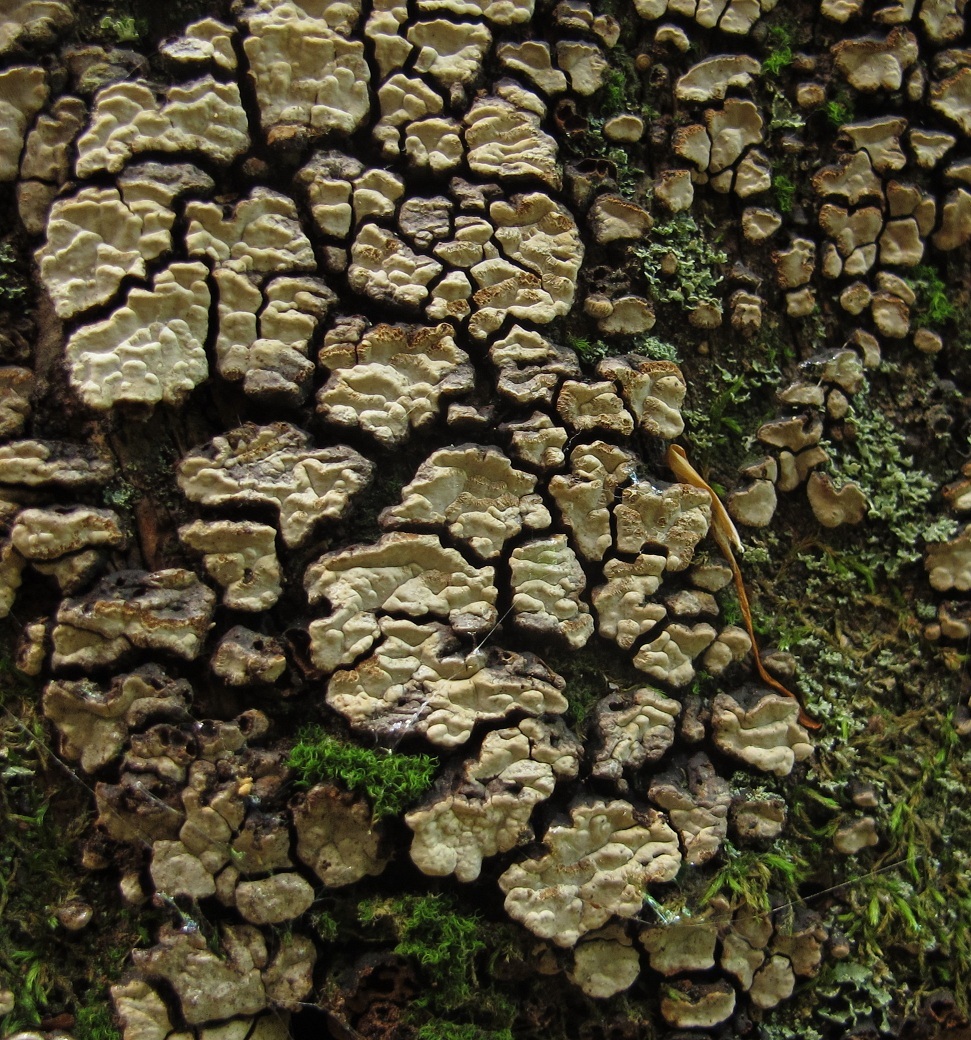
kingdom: Fungi
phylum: Basidiomycota
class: Agaricomycetes
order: Russulales
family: Stereaceae
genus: Xylobolus
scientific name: Xylobolus frustulatus
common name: Ceramic parchment
